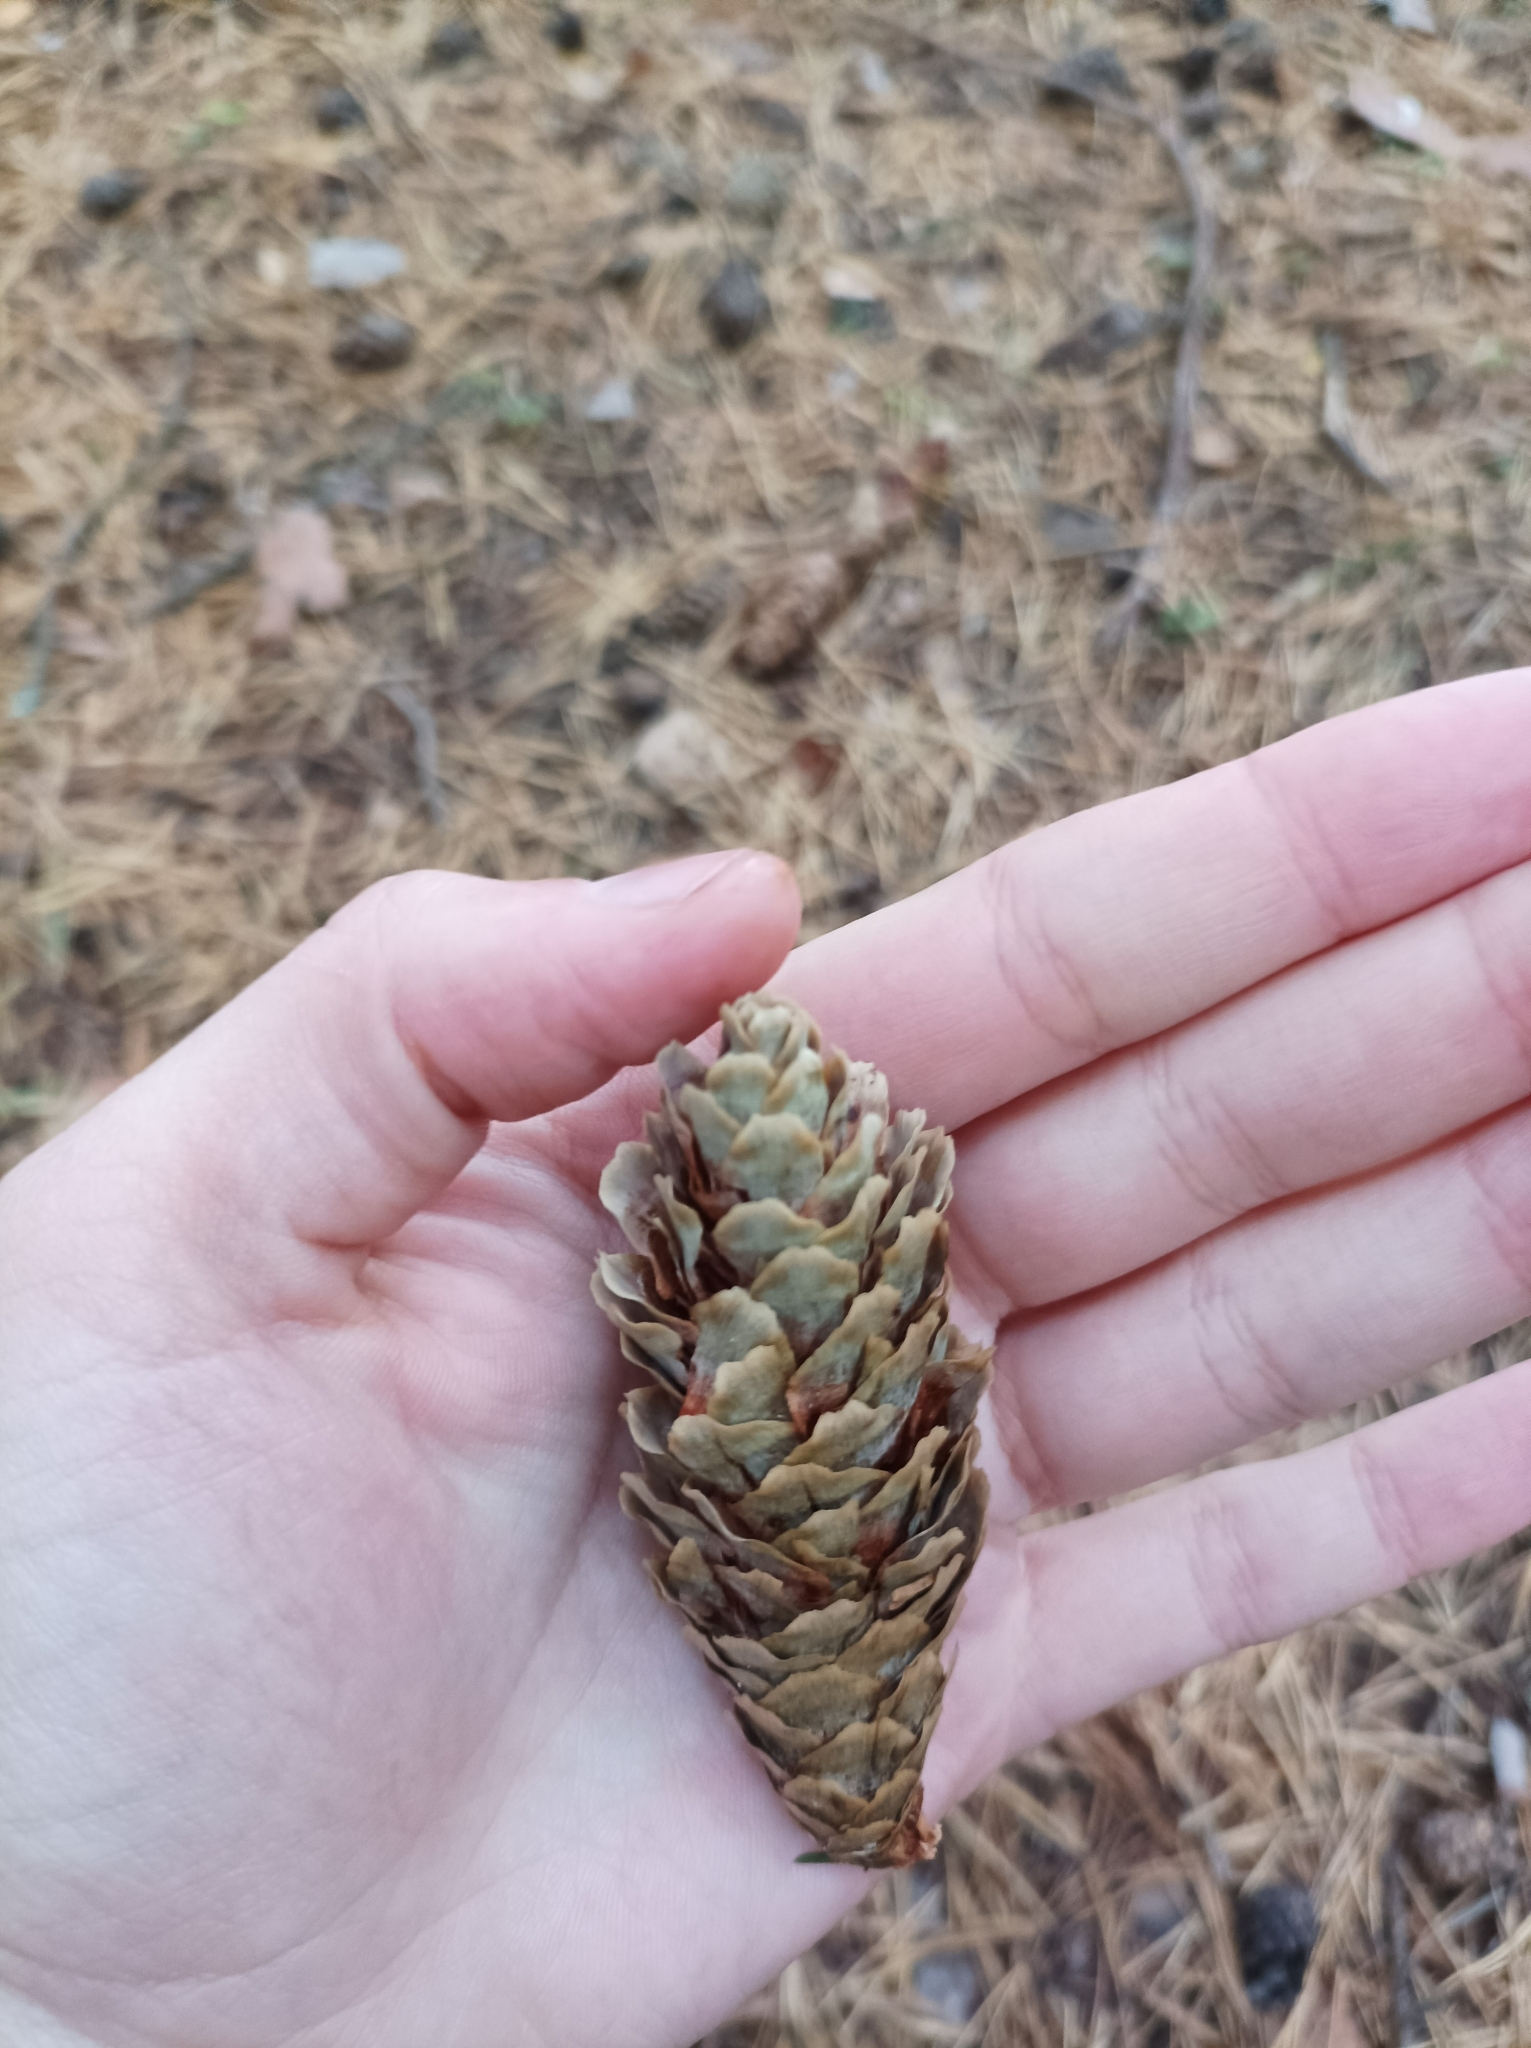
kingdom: Plantae
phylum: Tracheophyta
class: Pinopsida
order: Pinales
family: Pinaceae
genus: Picea
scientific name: Picea abies
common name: Norway spruce
